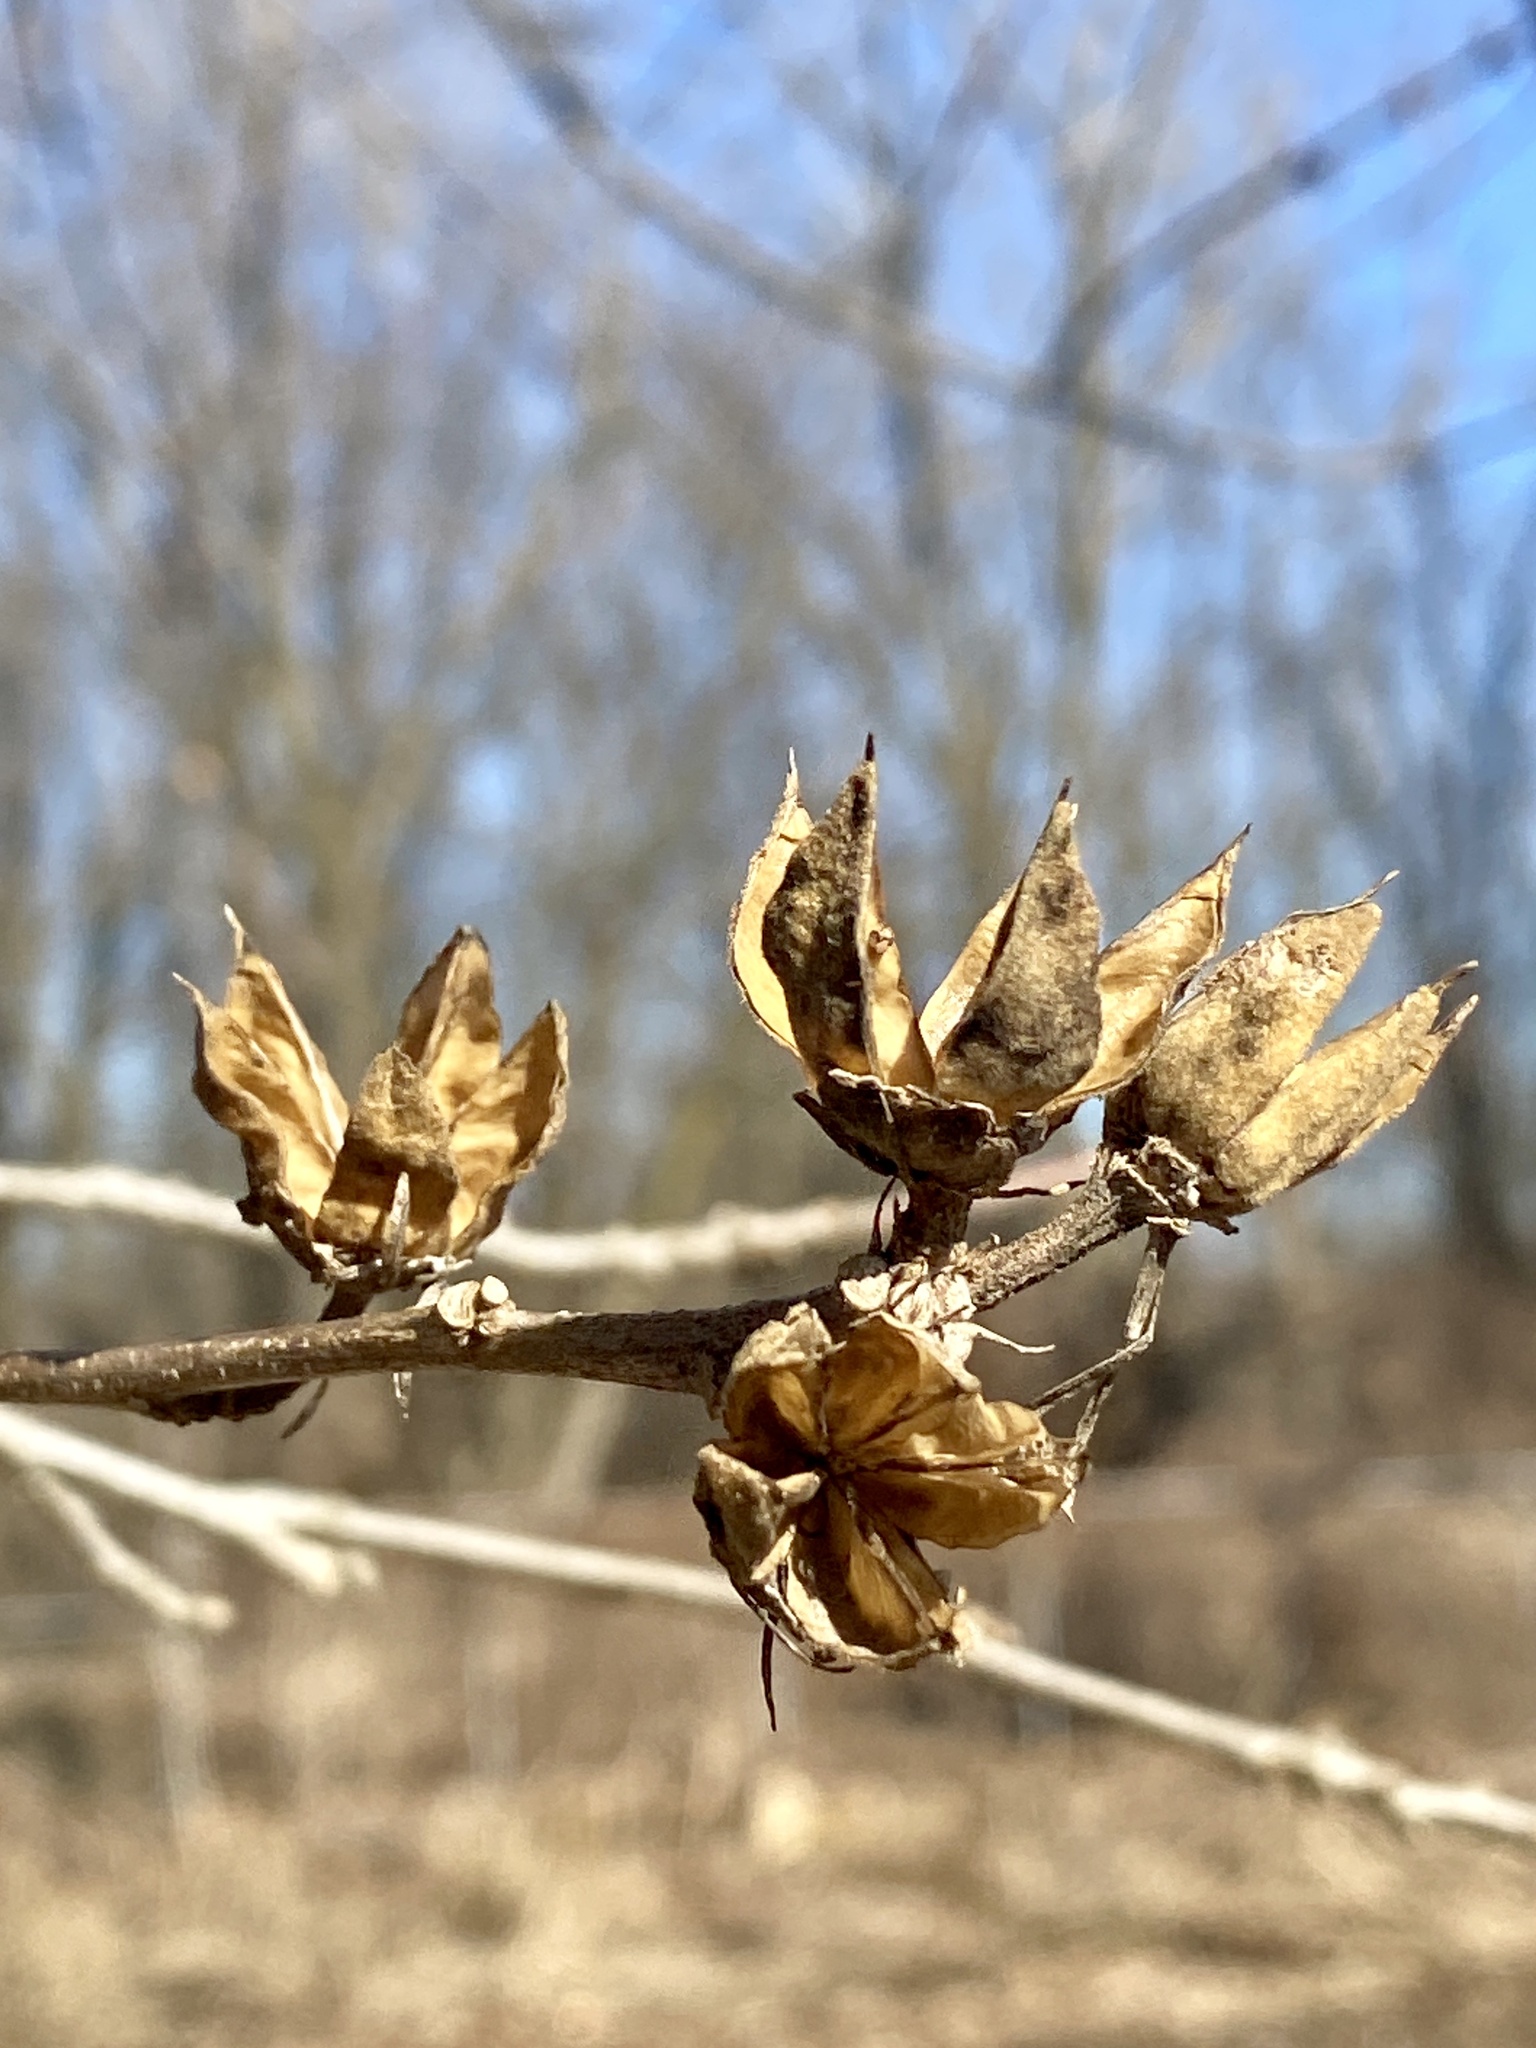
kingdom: Plantae
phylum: Tracheophyta
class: Magnoliopsida
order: Malvales
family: Malvaceae
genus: Hibiscus
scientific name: Hibiscus syriacus
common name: Syrian ketmia
